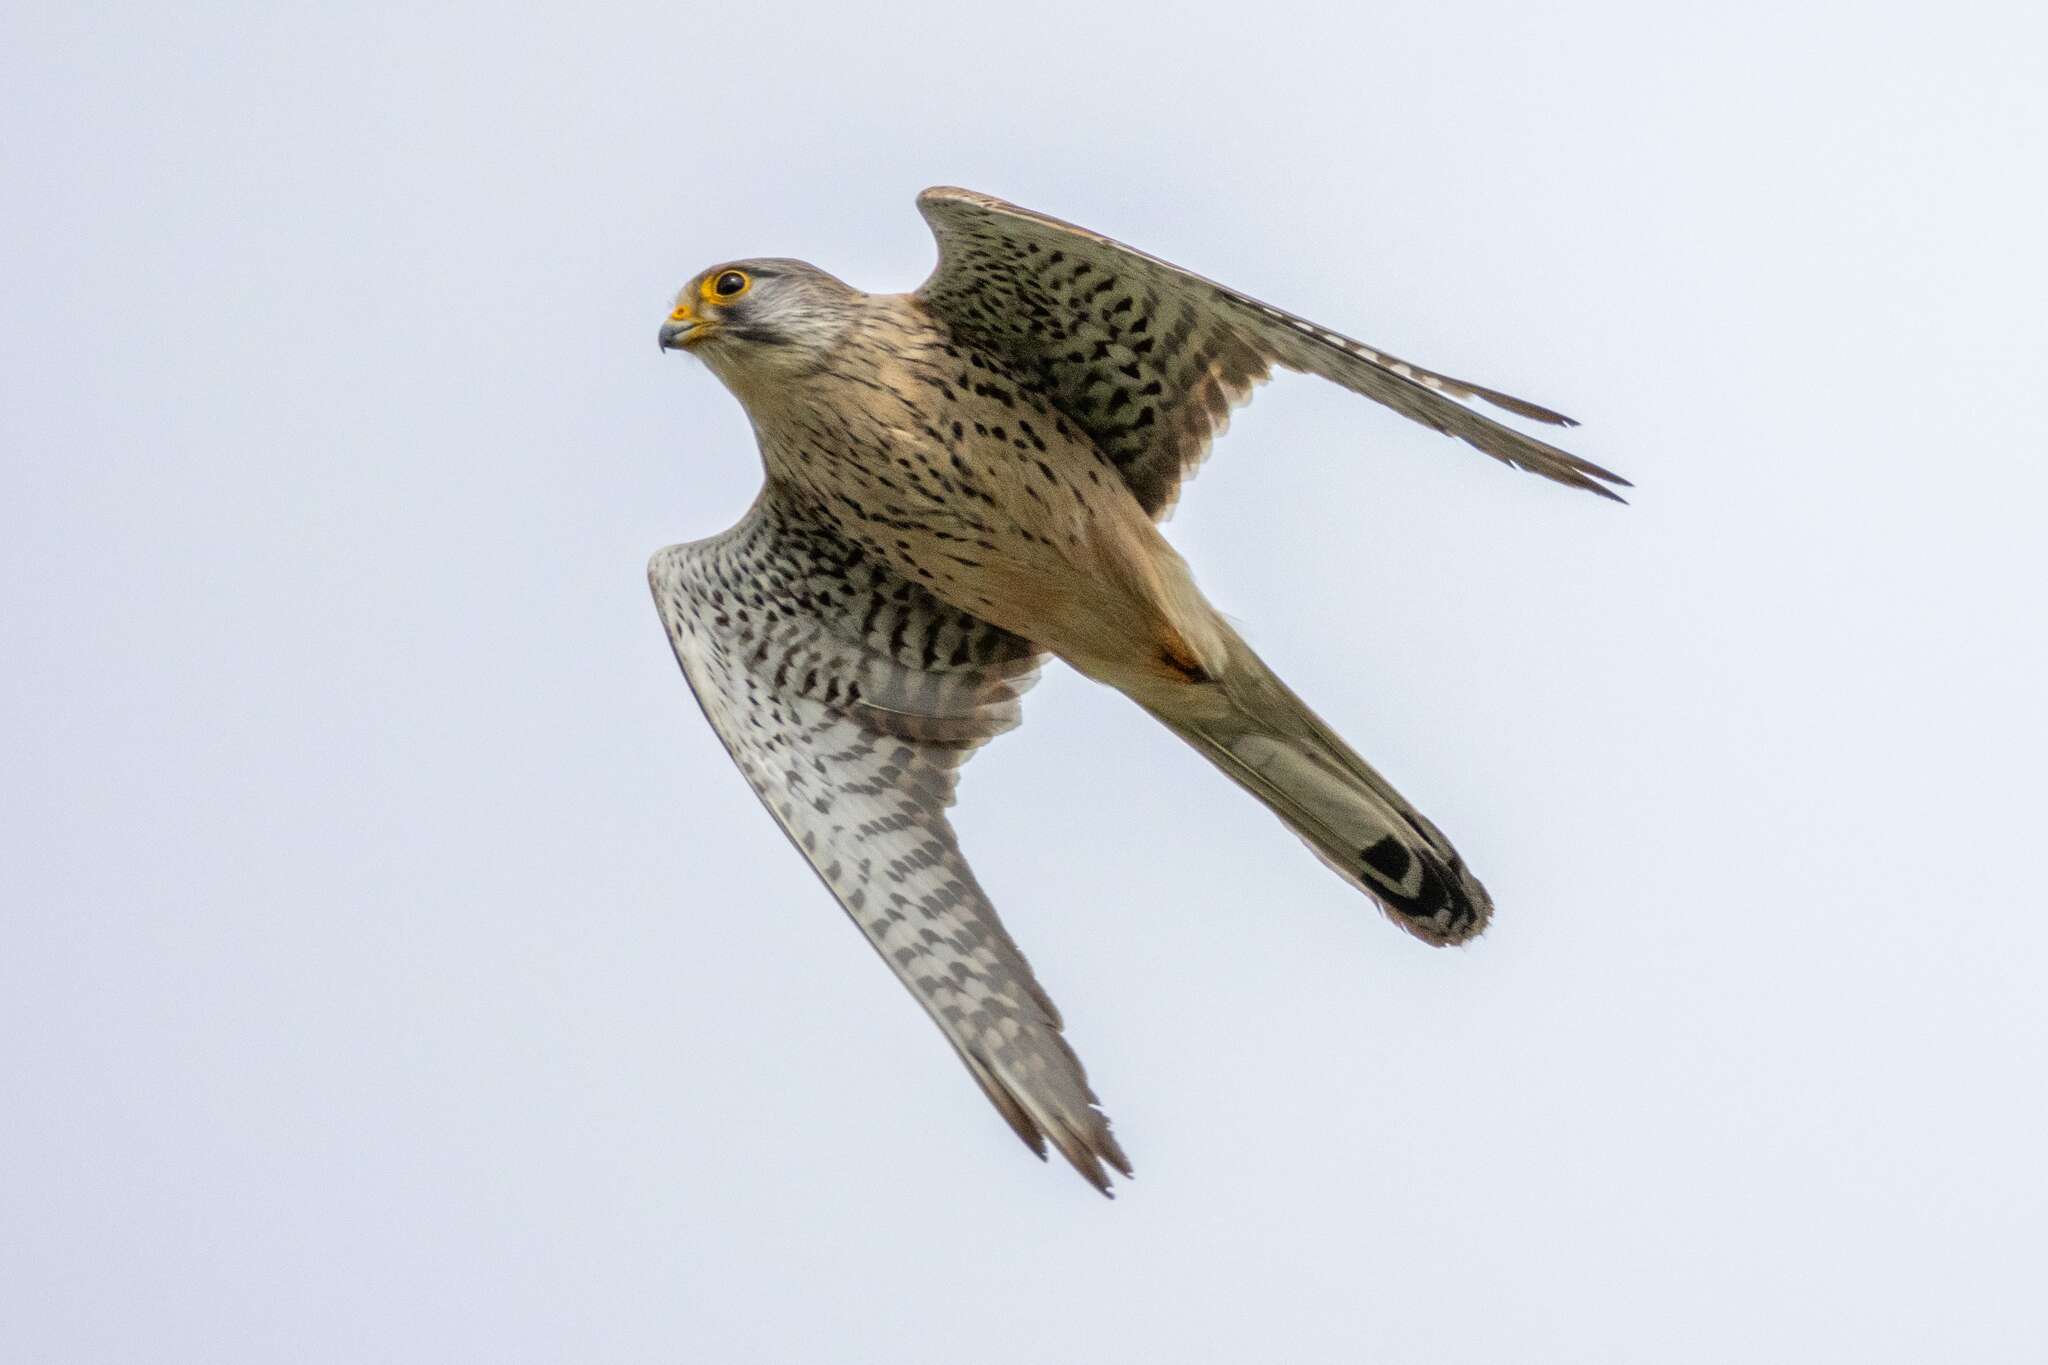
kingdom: Animalia
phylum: Chordata
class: Aves
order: Falconiformes
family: Falconidae
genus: Falco
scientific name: Falco tinnunculus
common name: Common kestrel
